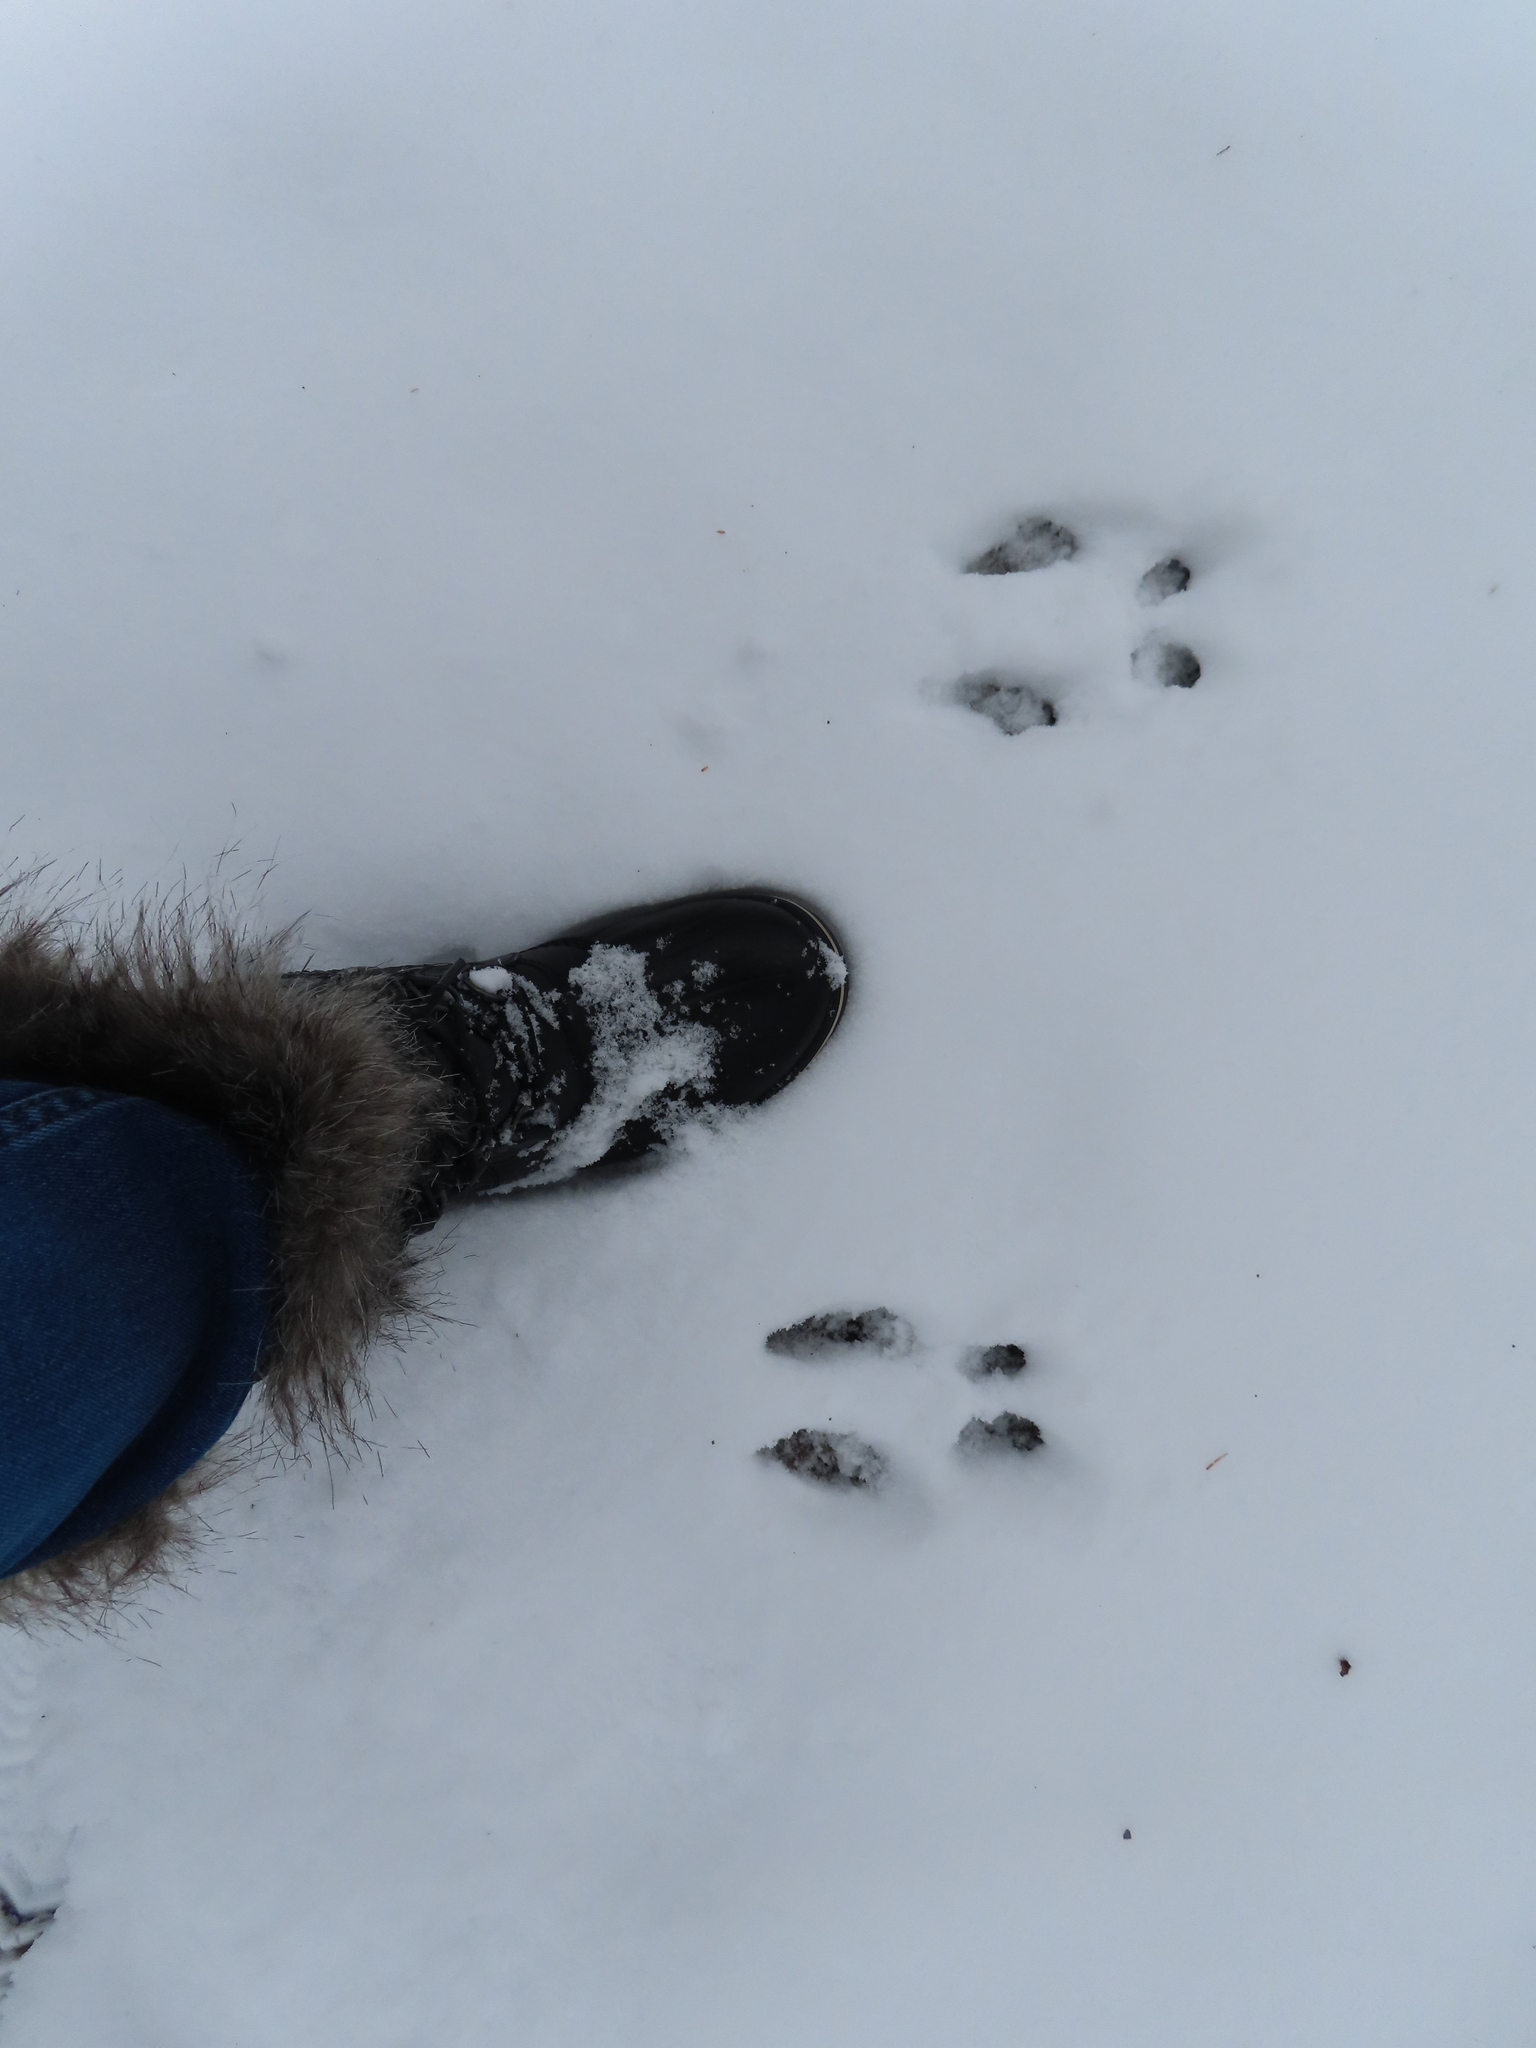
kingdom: Animalia
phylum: Chordata
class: Mammalia
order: Rodentia
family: Sciuridae
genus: Sciurus
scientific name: Sciurus carolinensis
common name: Eastern gray squirrel
